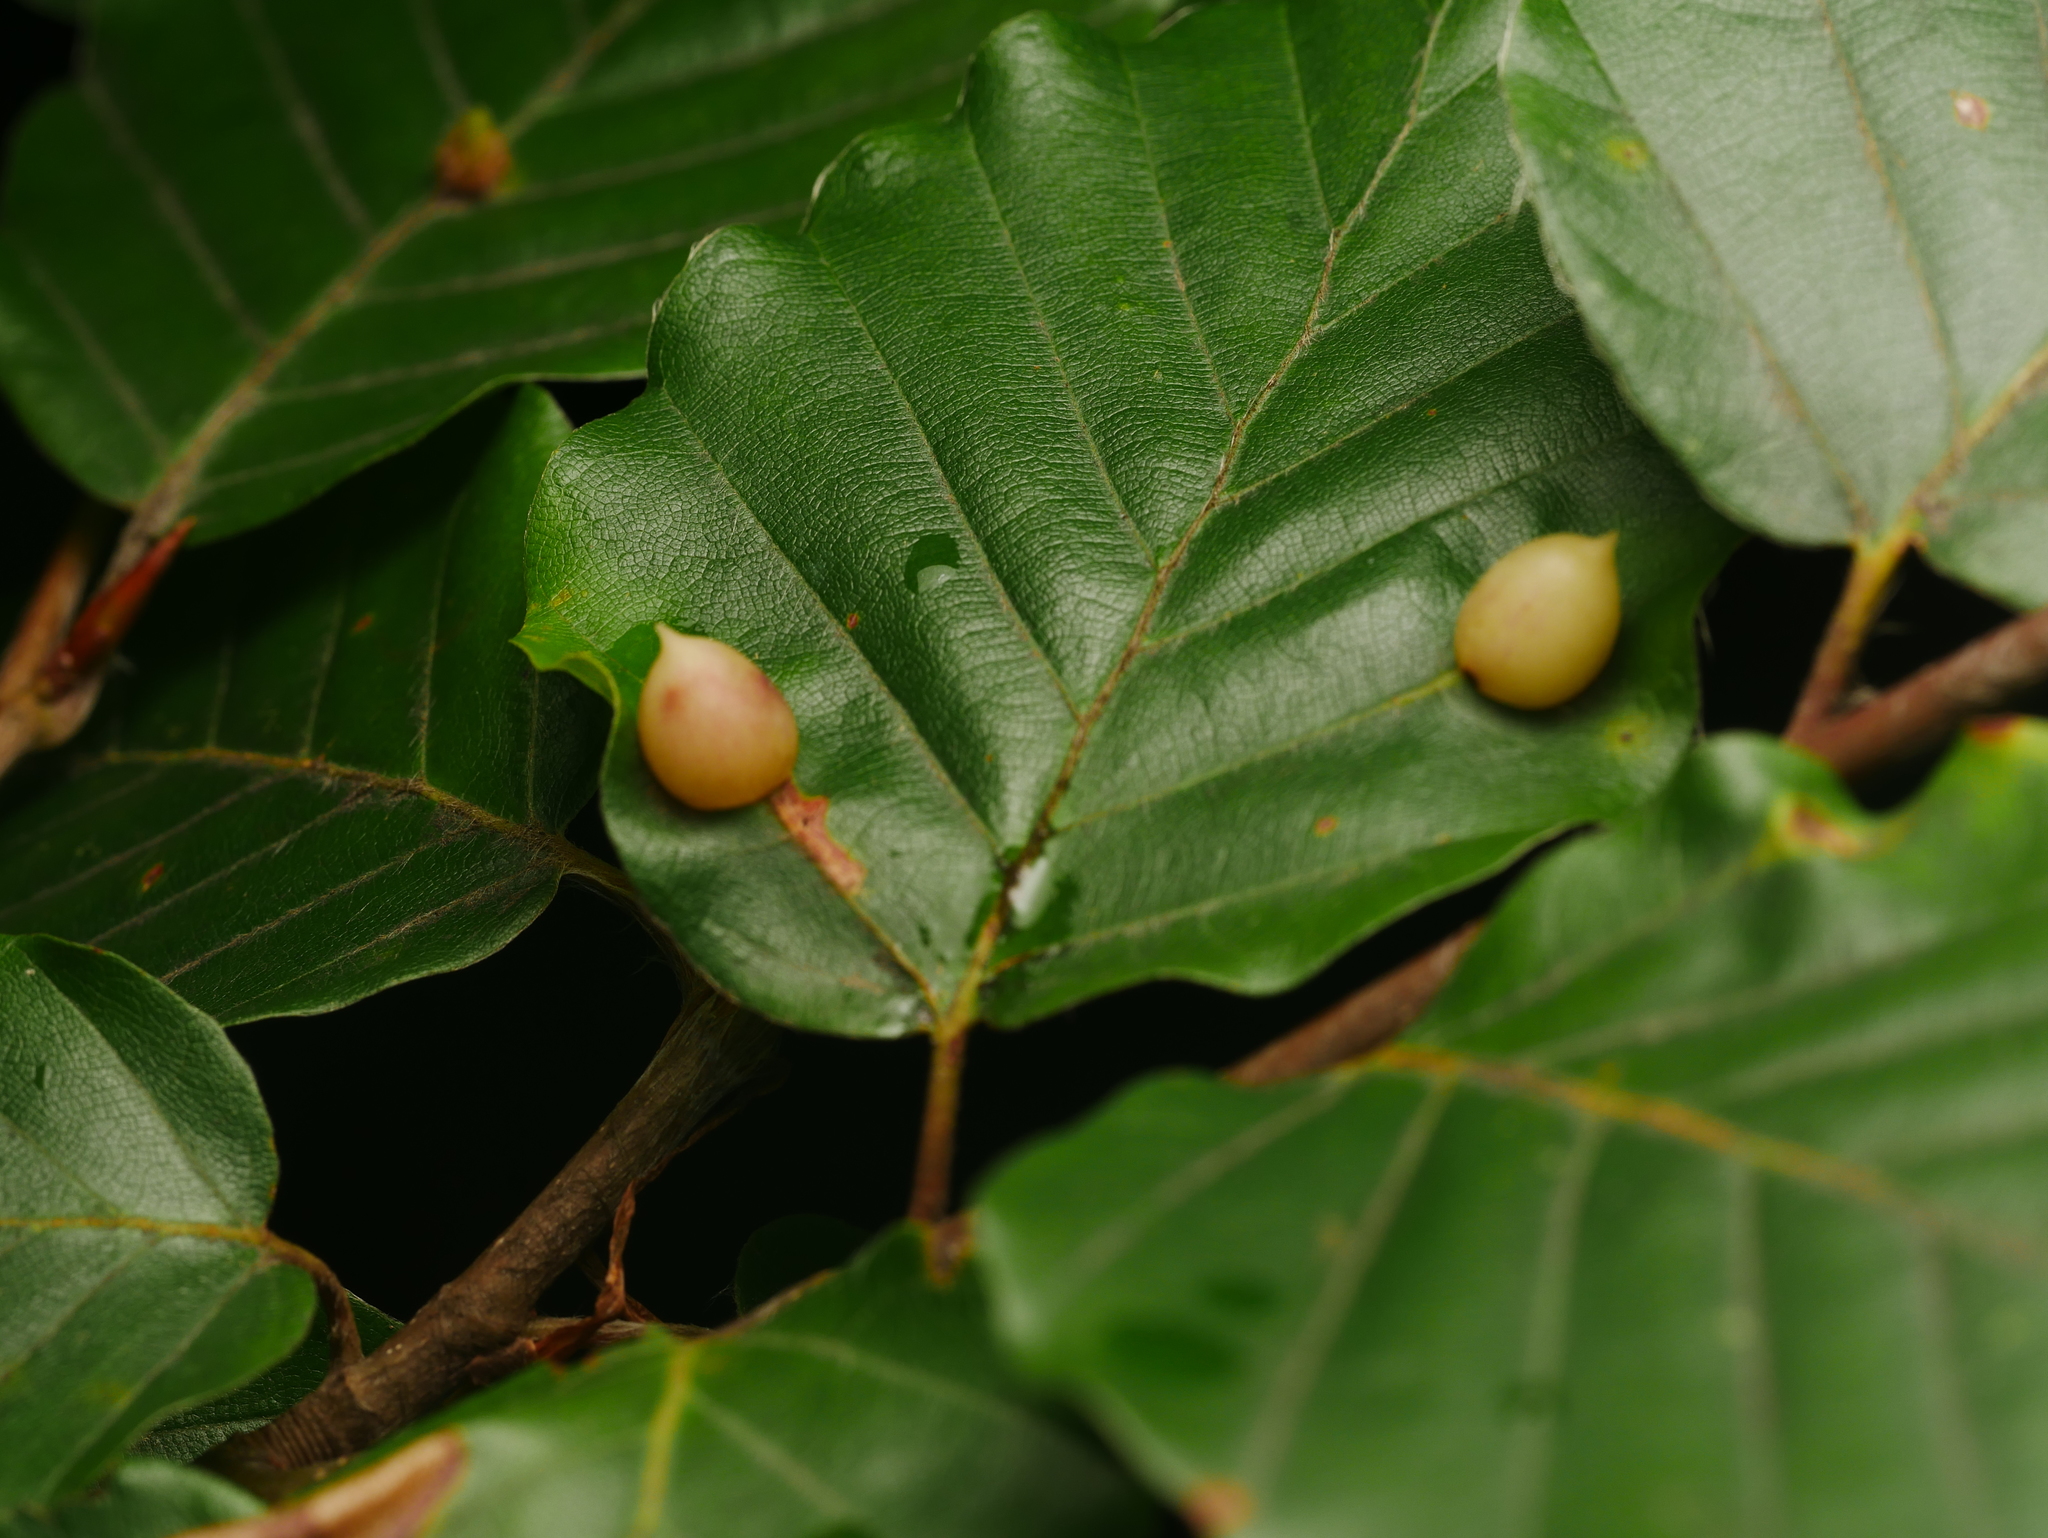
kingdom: Plantae
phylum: Tracheophyta
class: Magnoliopsida
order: Fagales
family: Fagaceae
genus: Fagus
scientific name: Fagus sylvatica
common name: Beech
